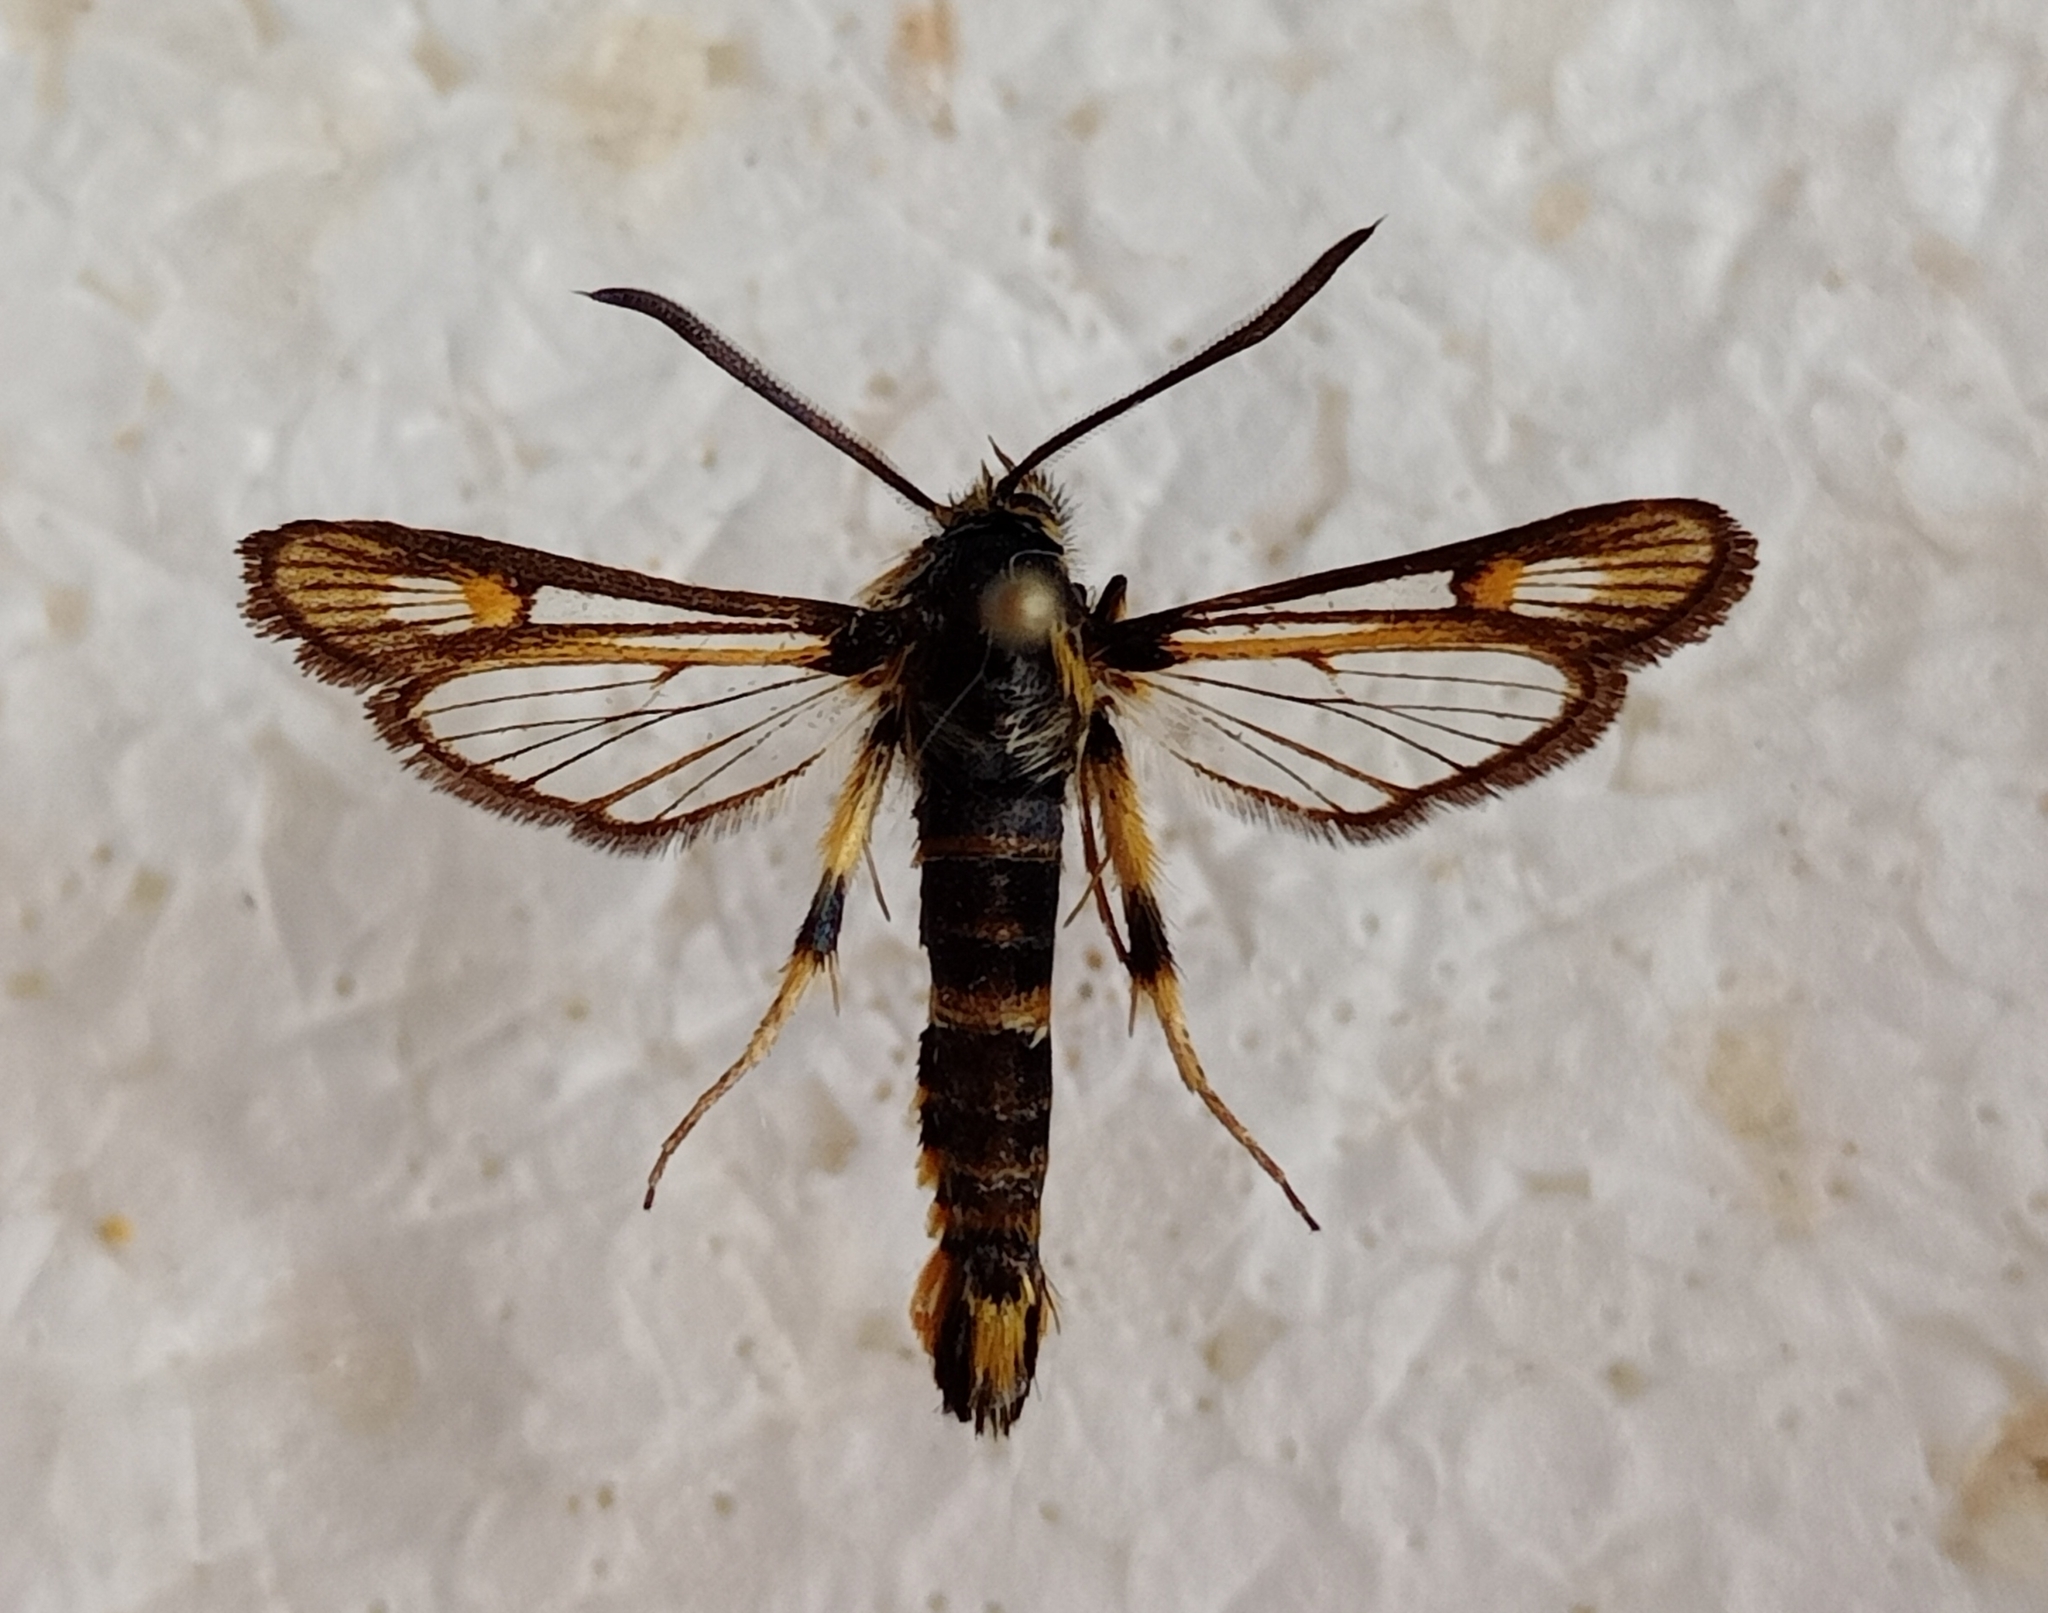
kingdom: Animalia
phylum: Arthropoda
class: Insecta
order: Lepidoptera
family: Sesiidae
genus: Bembecia
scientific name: Bembecia uroceriformis
